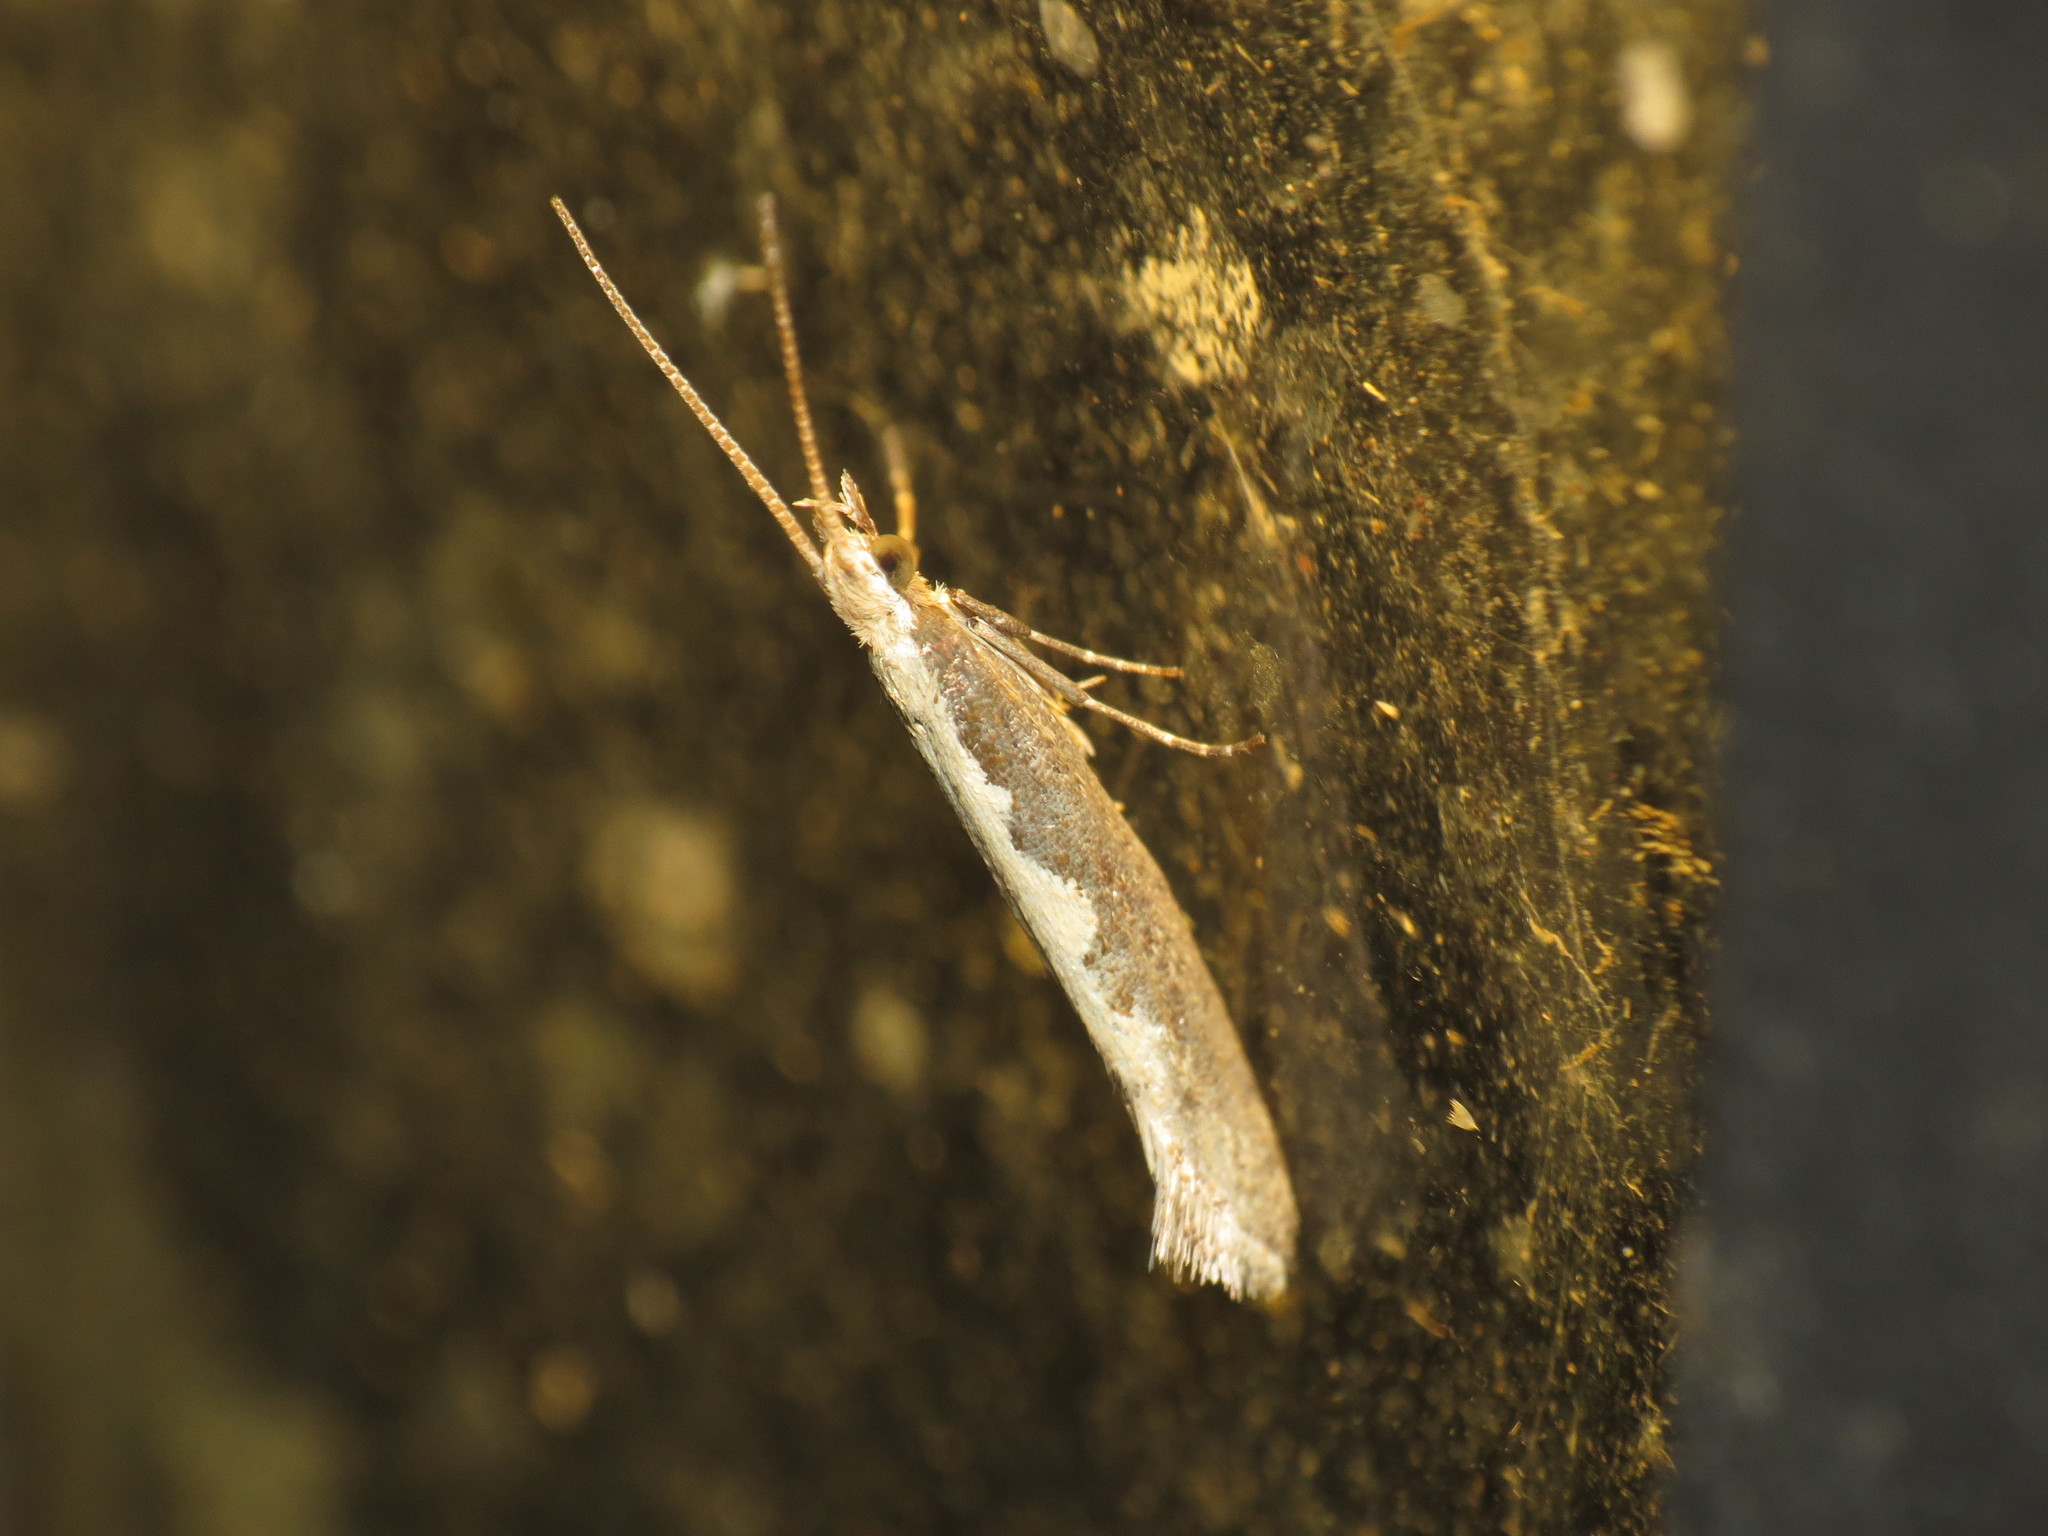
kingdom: Animalia
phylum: Arthropoda
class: Insecta
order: Lepidoptera
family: Plutellidae
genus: Plutella
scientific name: Plutella xylostella
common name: Diamond-back moth
